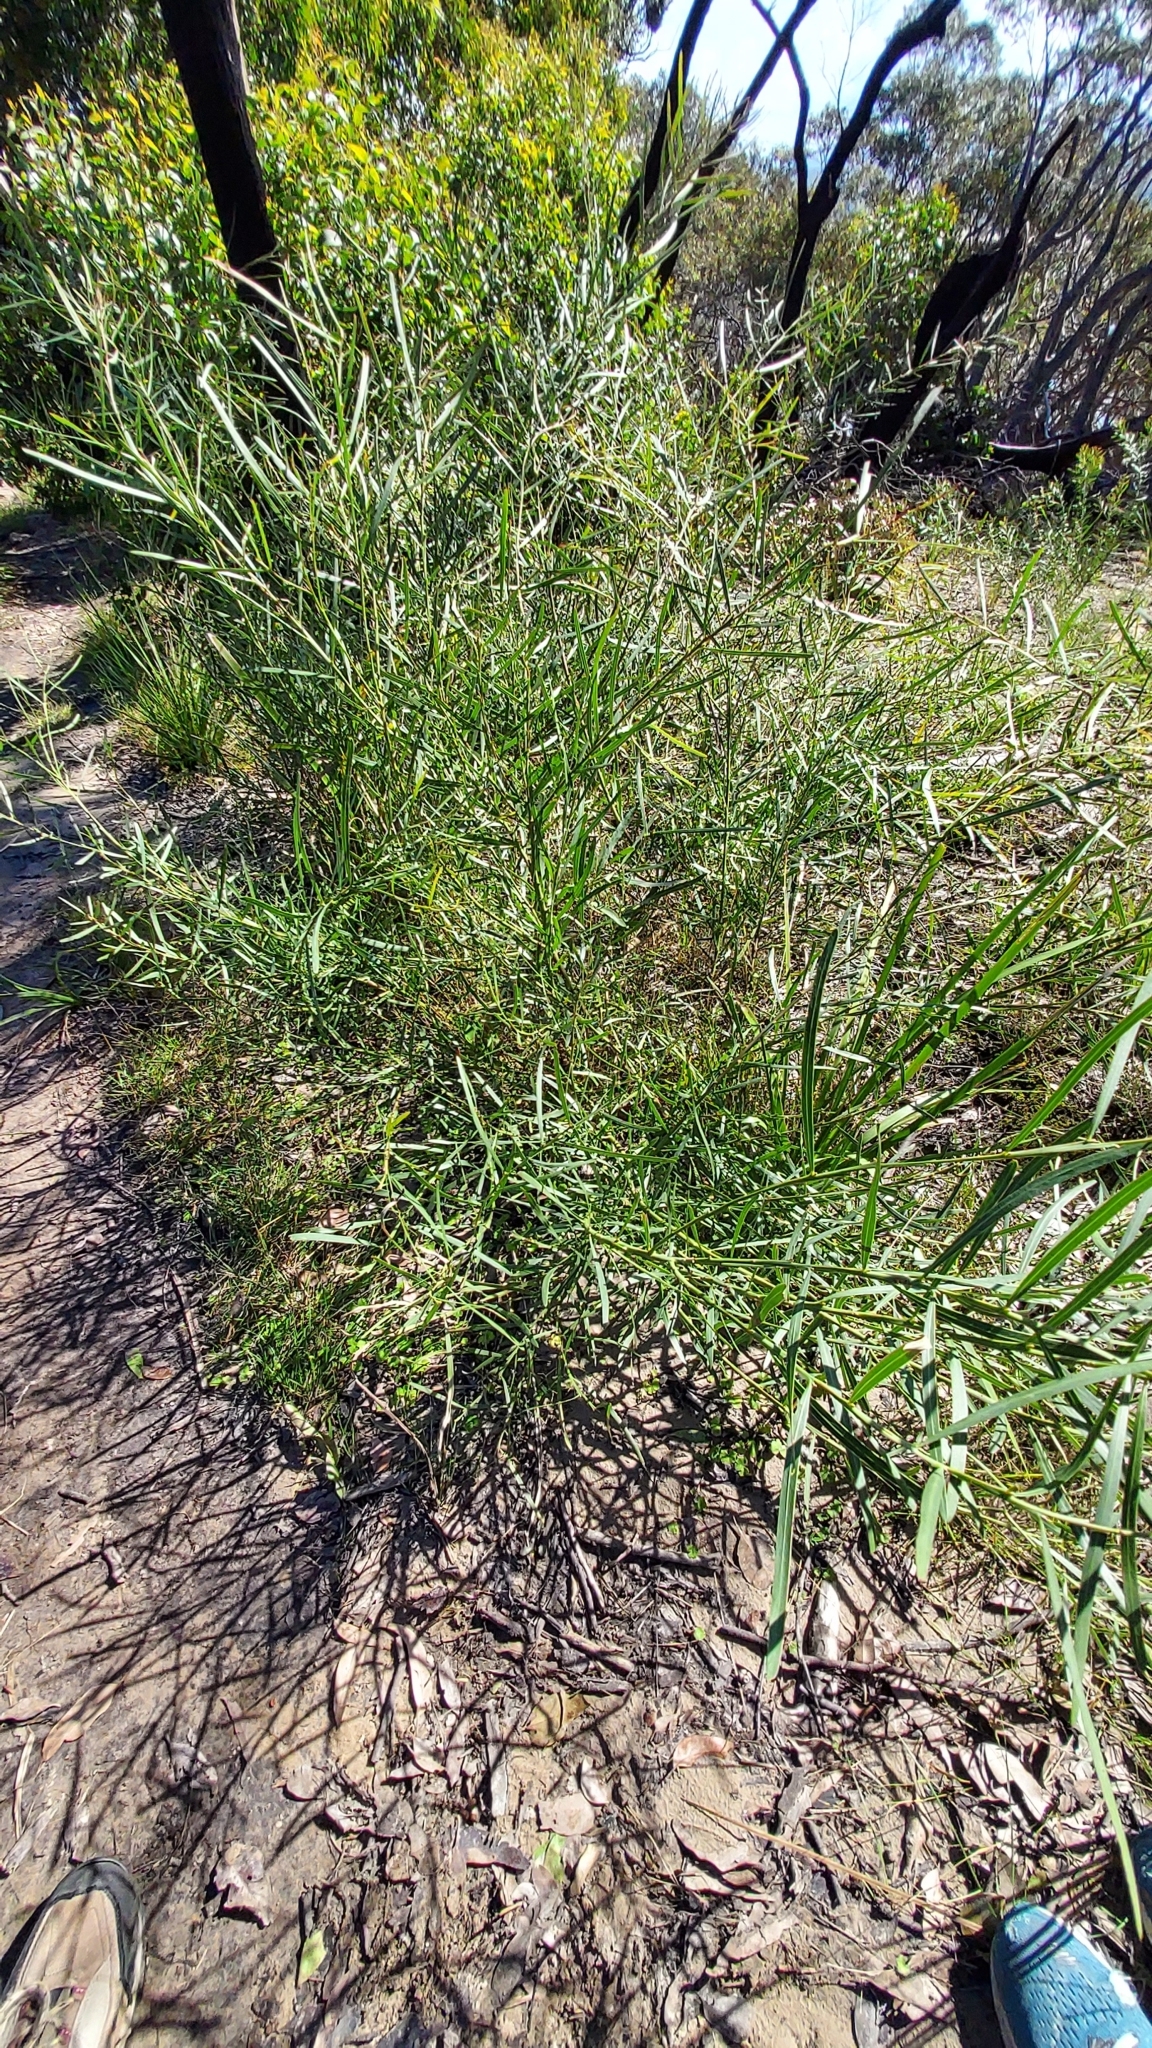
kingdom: Plantae
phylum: Tracheophyta
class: Magnoliopsida
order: Fabales
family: Fabaceae
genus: Acacia
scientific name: Acacia stricta
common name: Hop wattle
